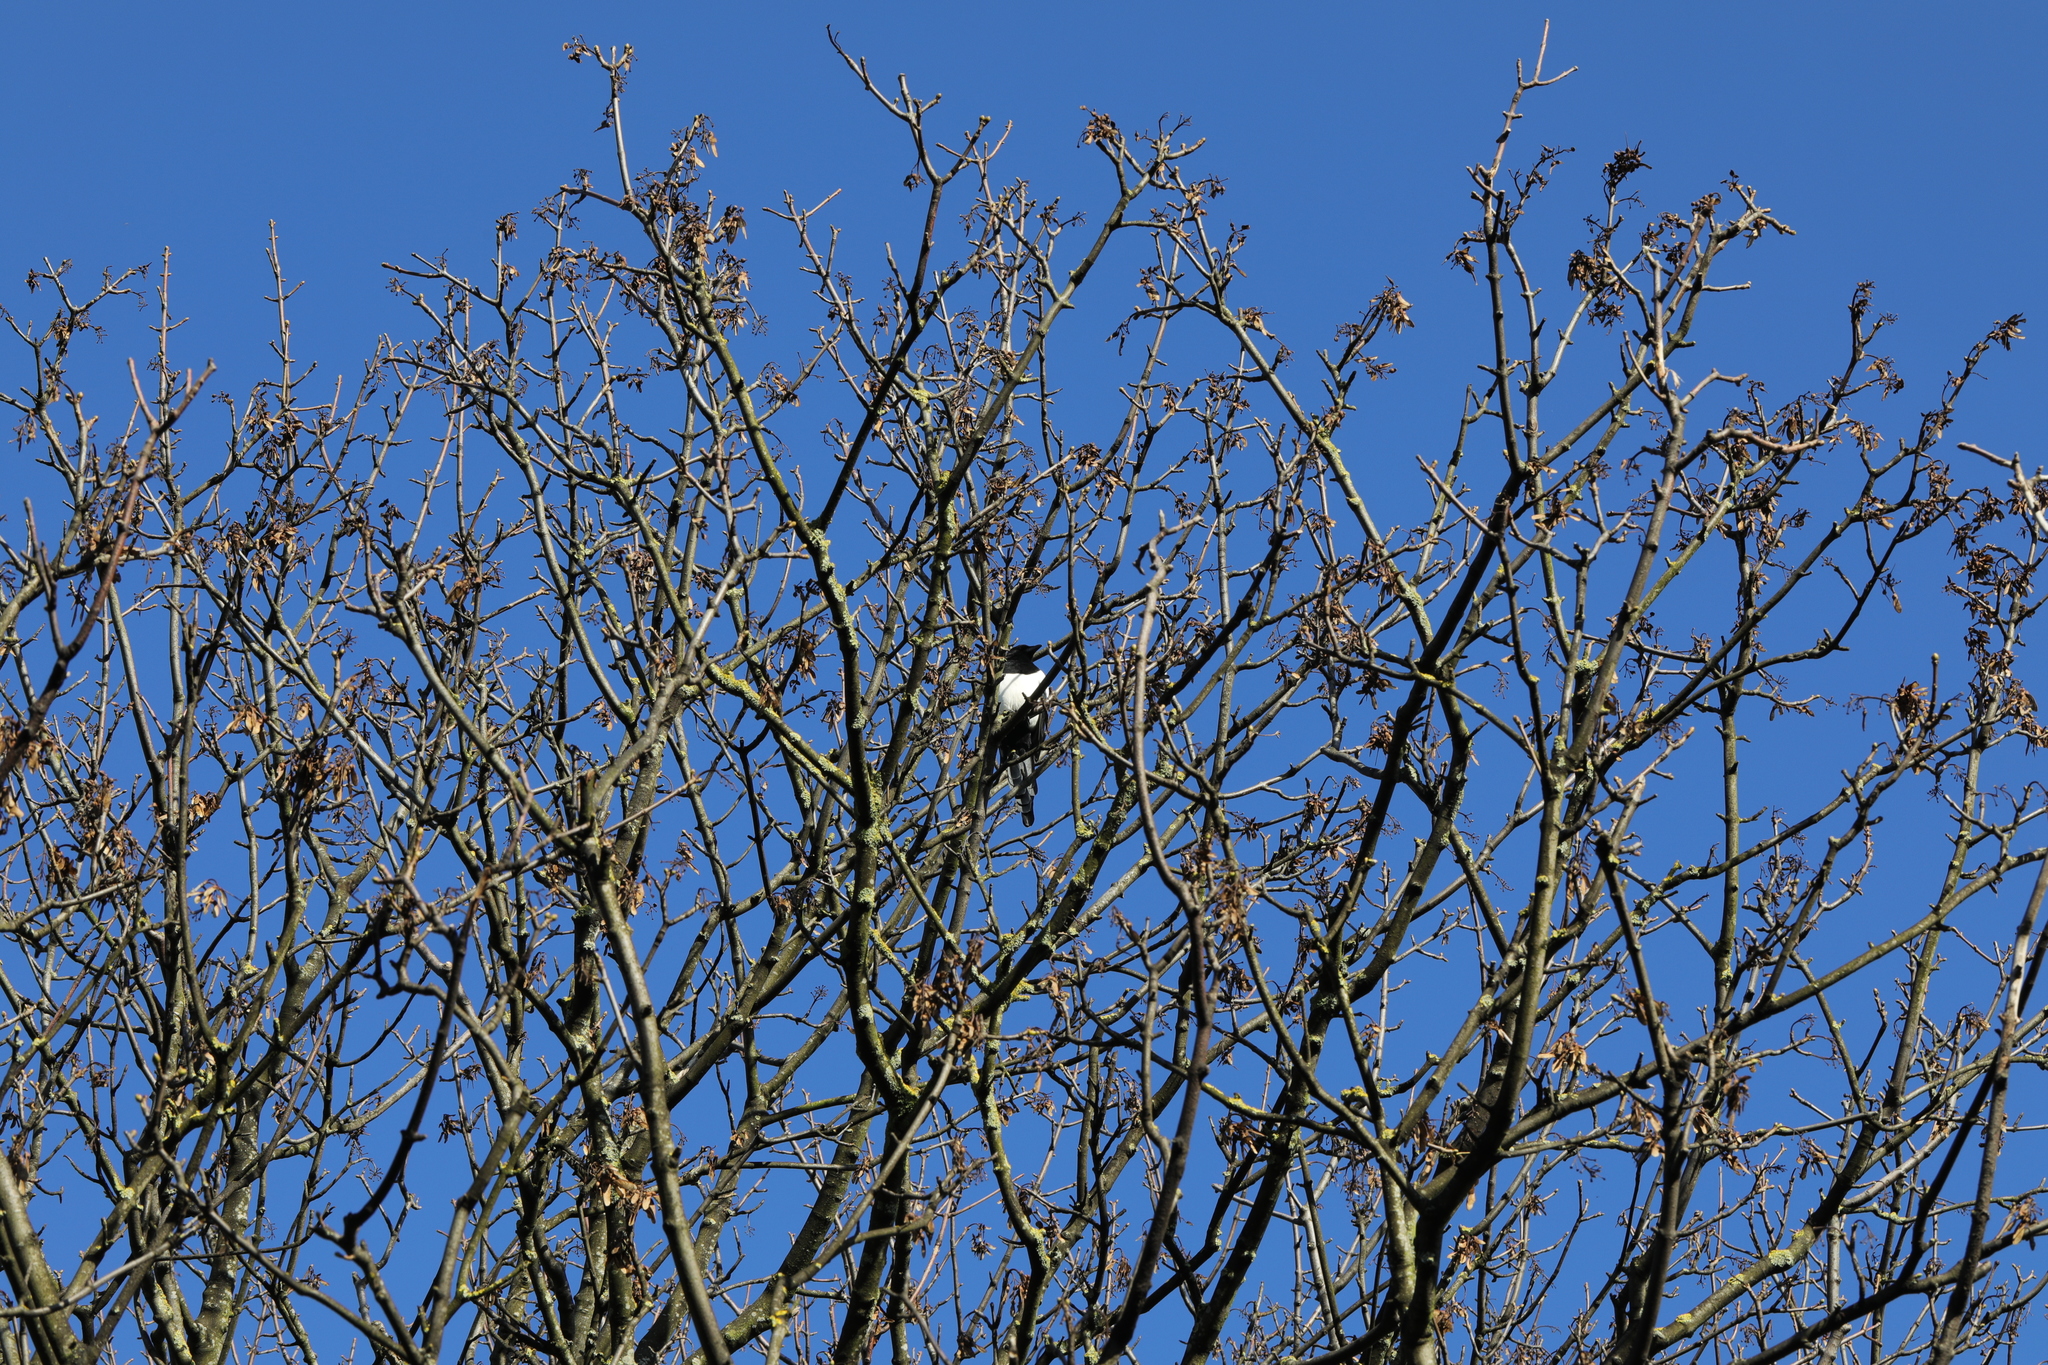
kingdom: Animalia
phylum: Chordata
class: Aves
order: Passeriformes
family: Corvidae
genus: Pica
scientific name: Pica pica
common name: Eurasian magpie
